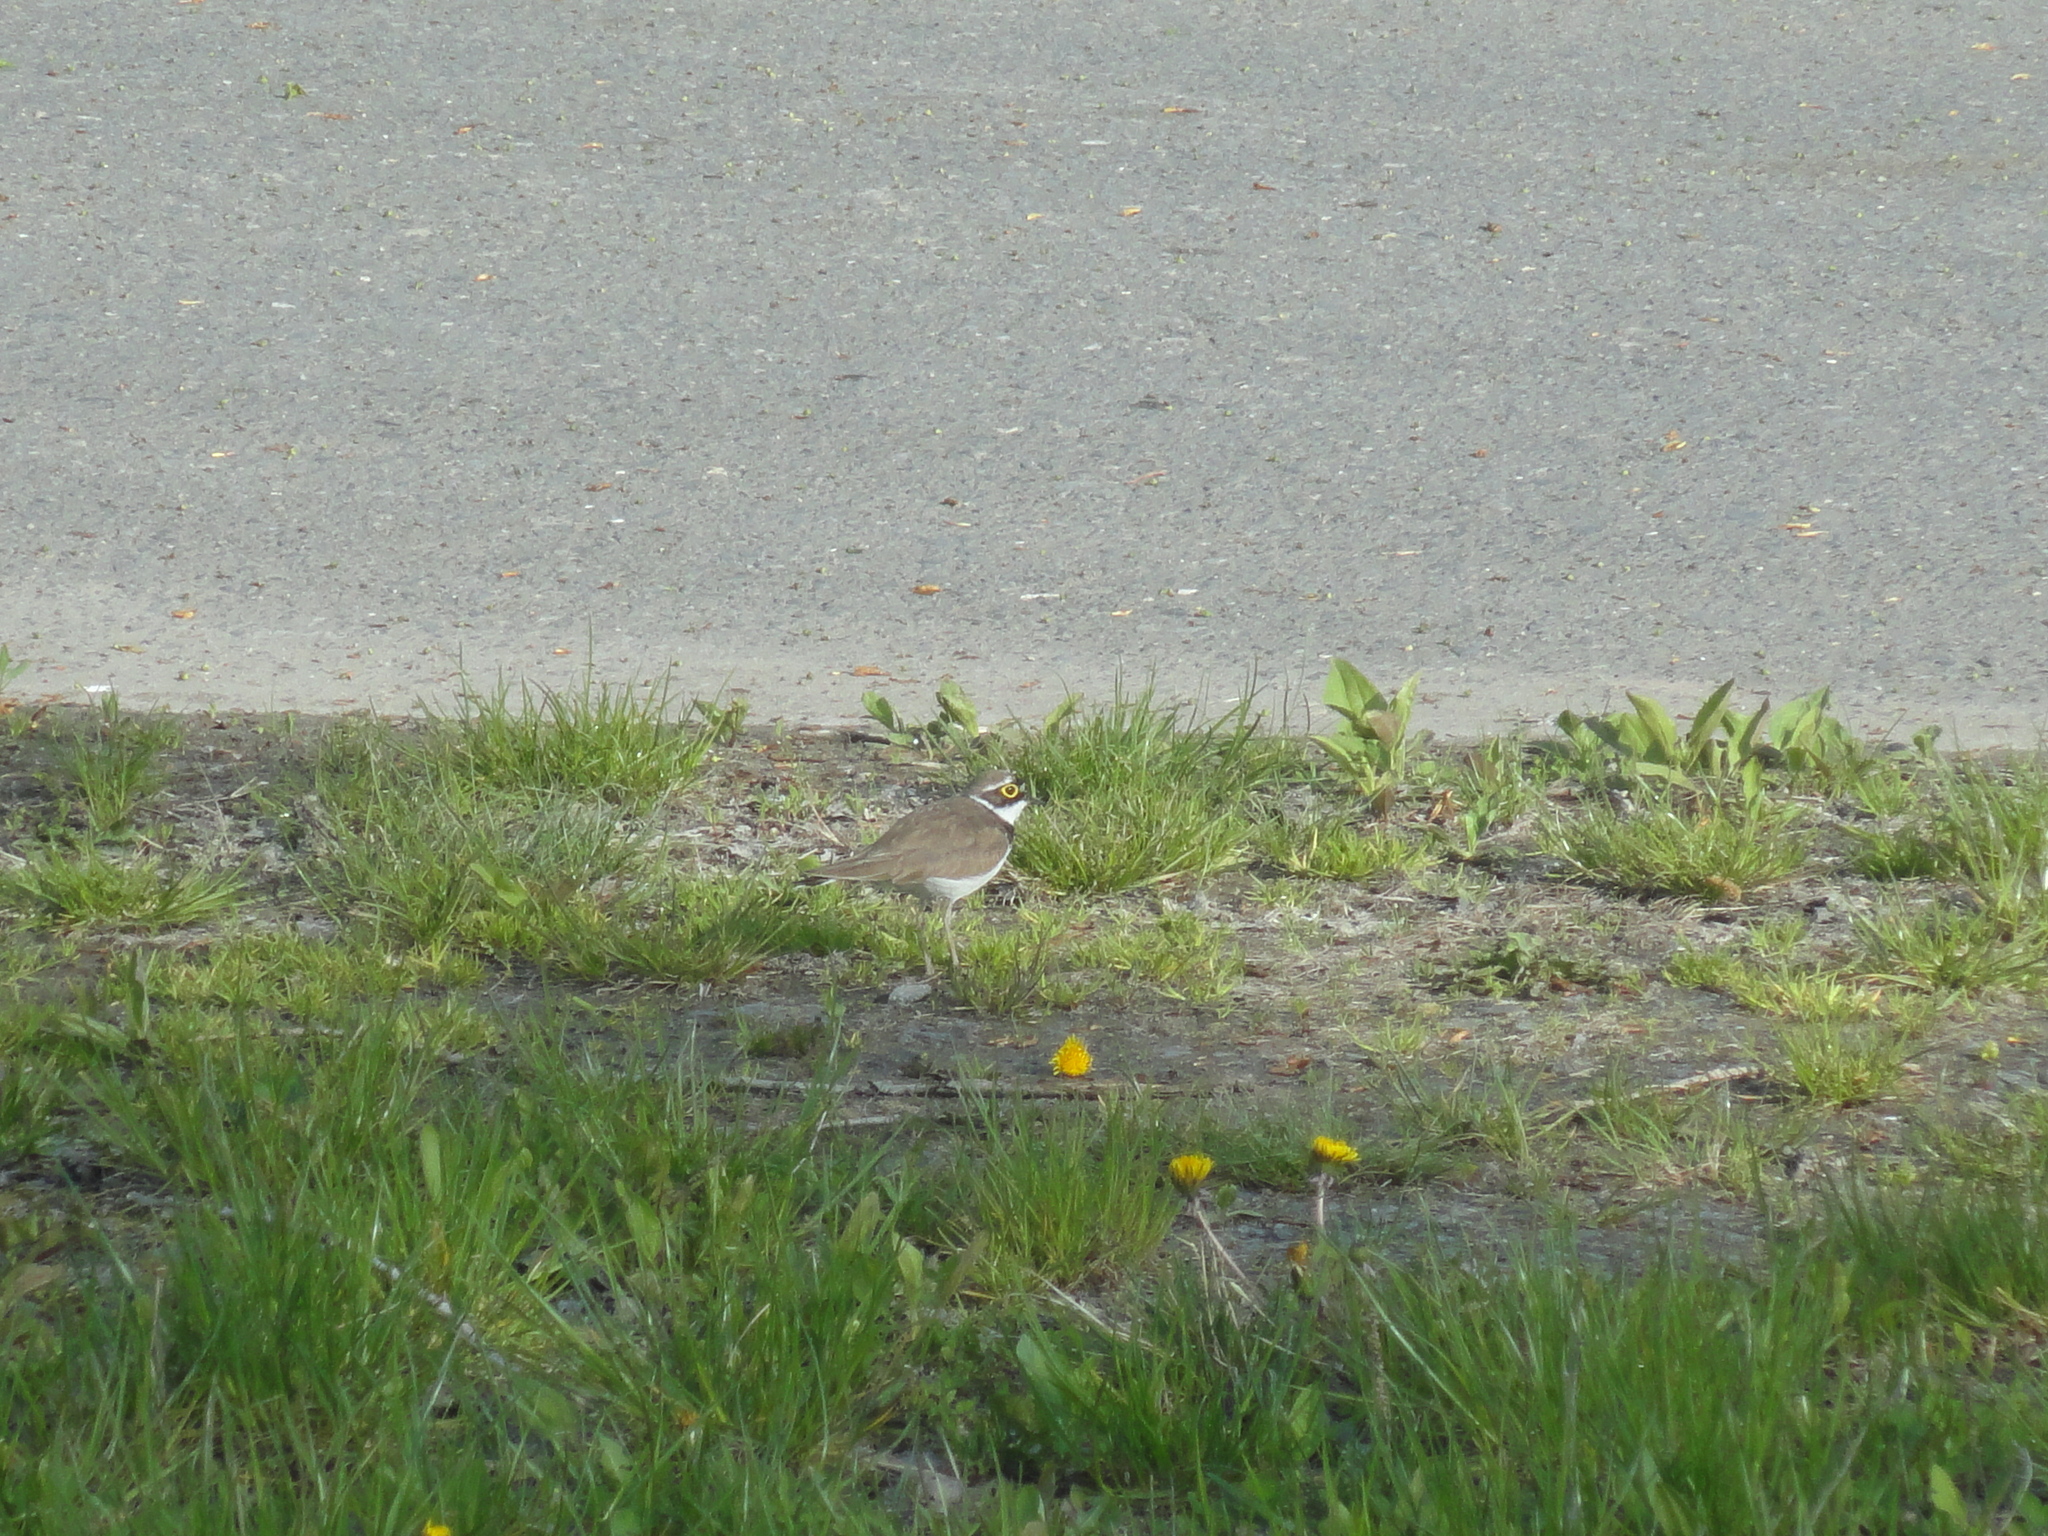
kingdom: Animalia
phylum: Chordata
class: Aves
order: Charadriiformes
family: Charadriidae
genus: Charadrius
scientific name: Charadrius dubius
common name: Little ringed plover
